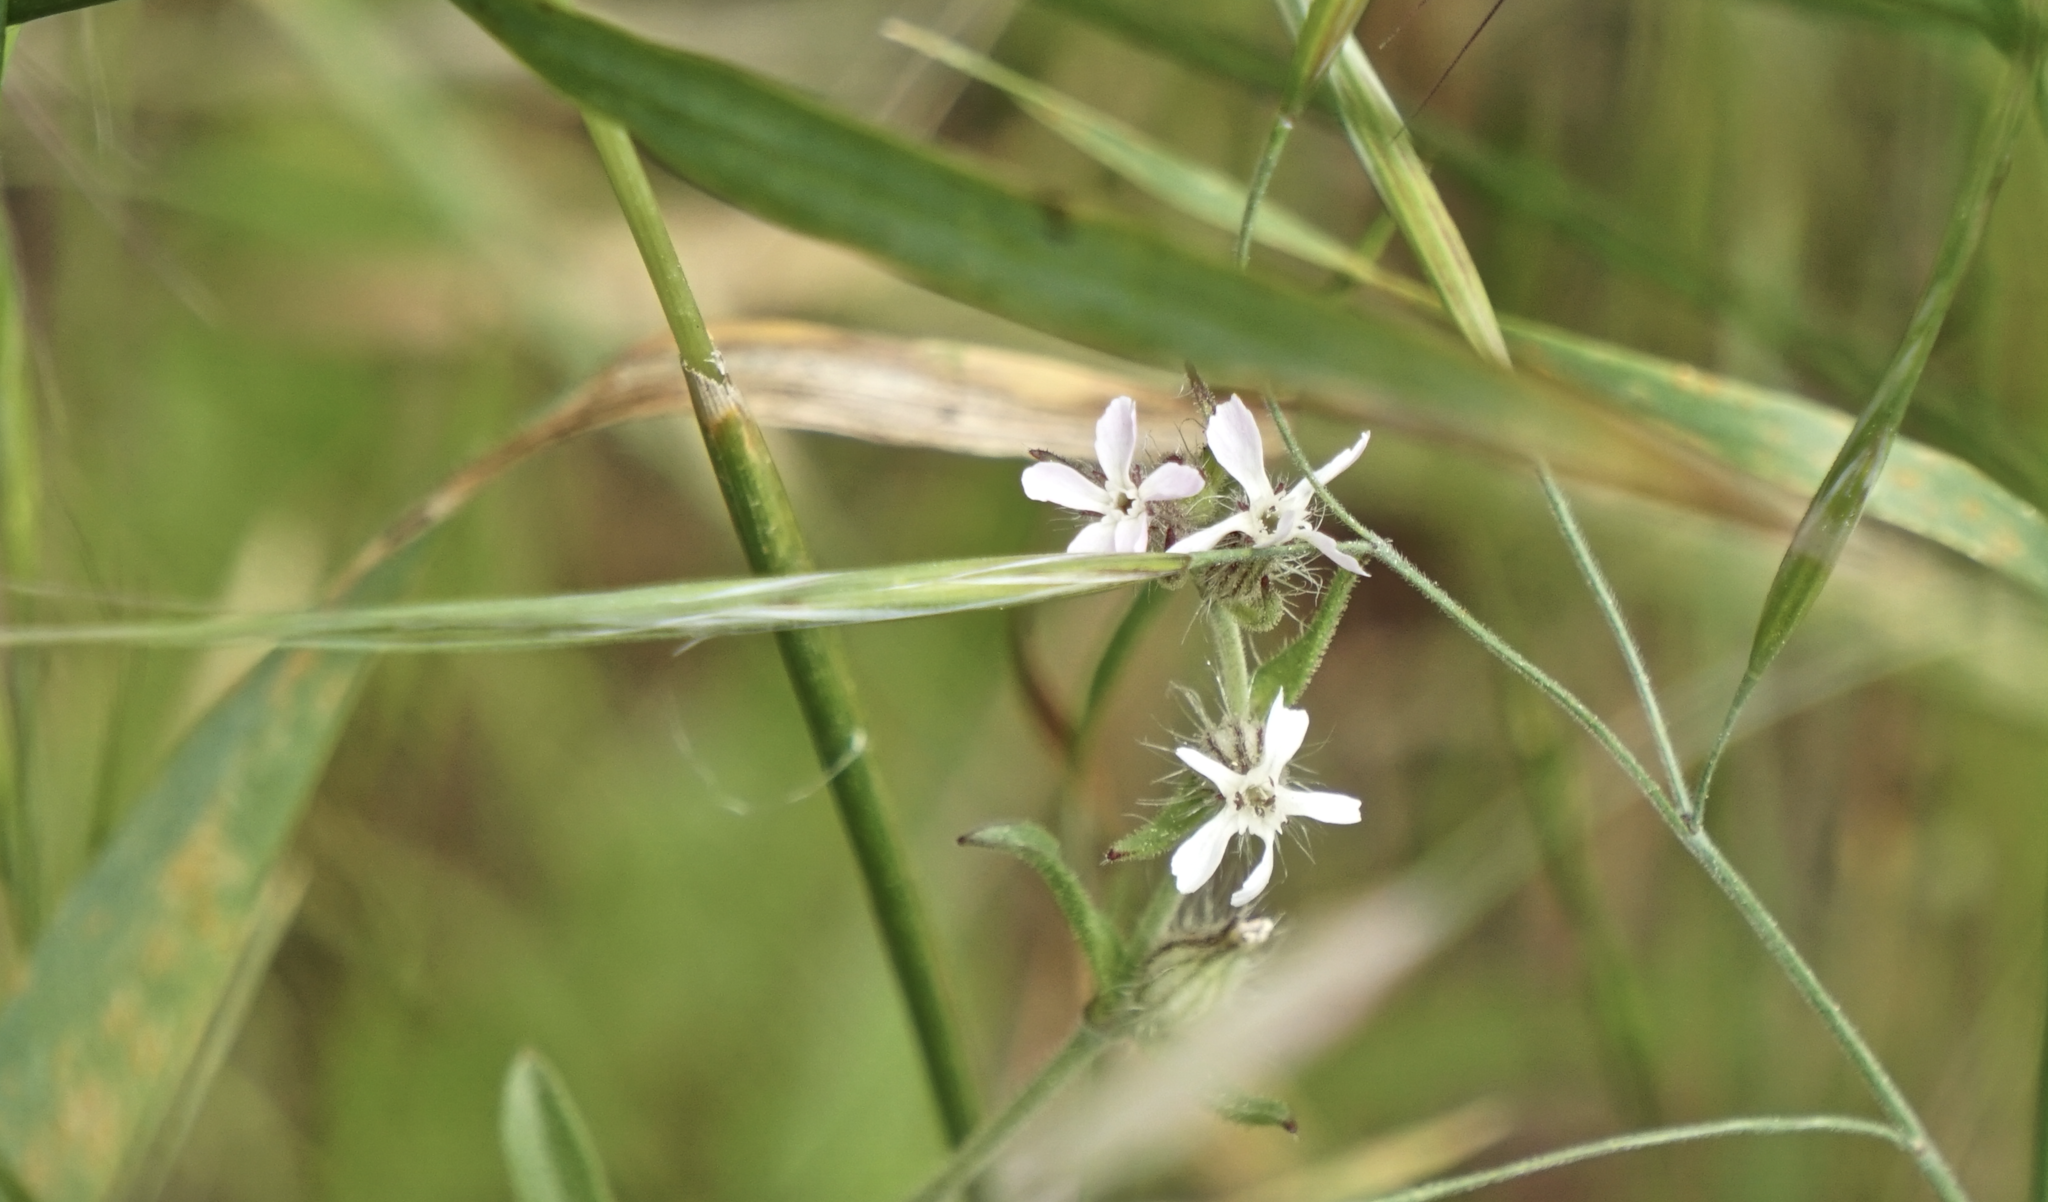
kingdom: Plantae
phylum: Tracheophyta
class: Magnoliopsida
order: Caryophyllales
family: Caryophyllaceae
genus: Silene
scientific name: Silene gallica
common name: Small-flowered catchfly
